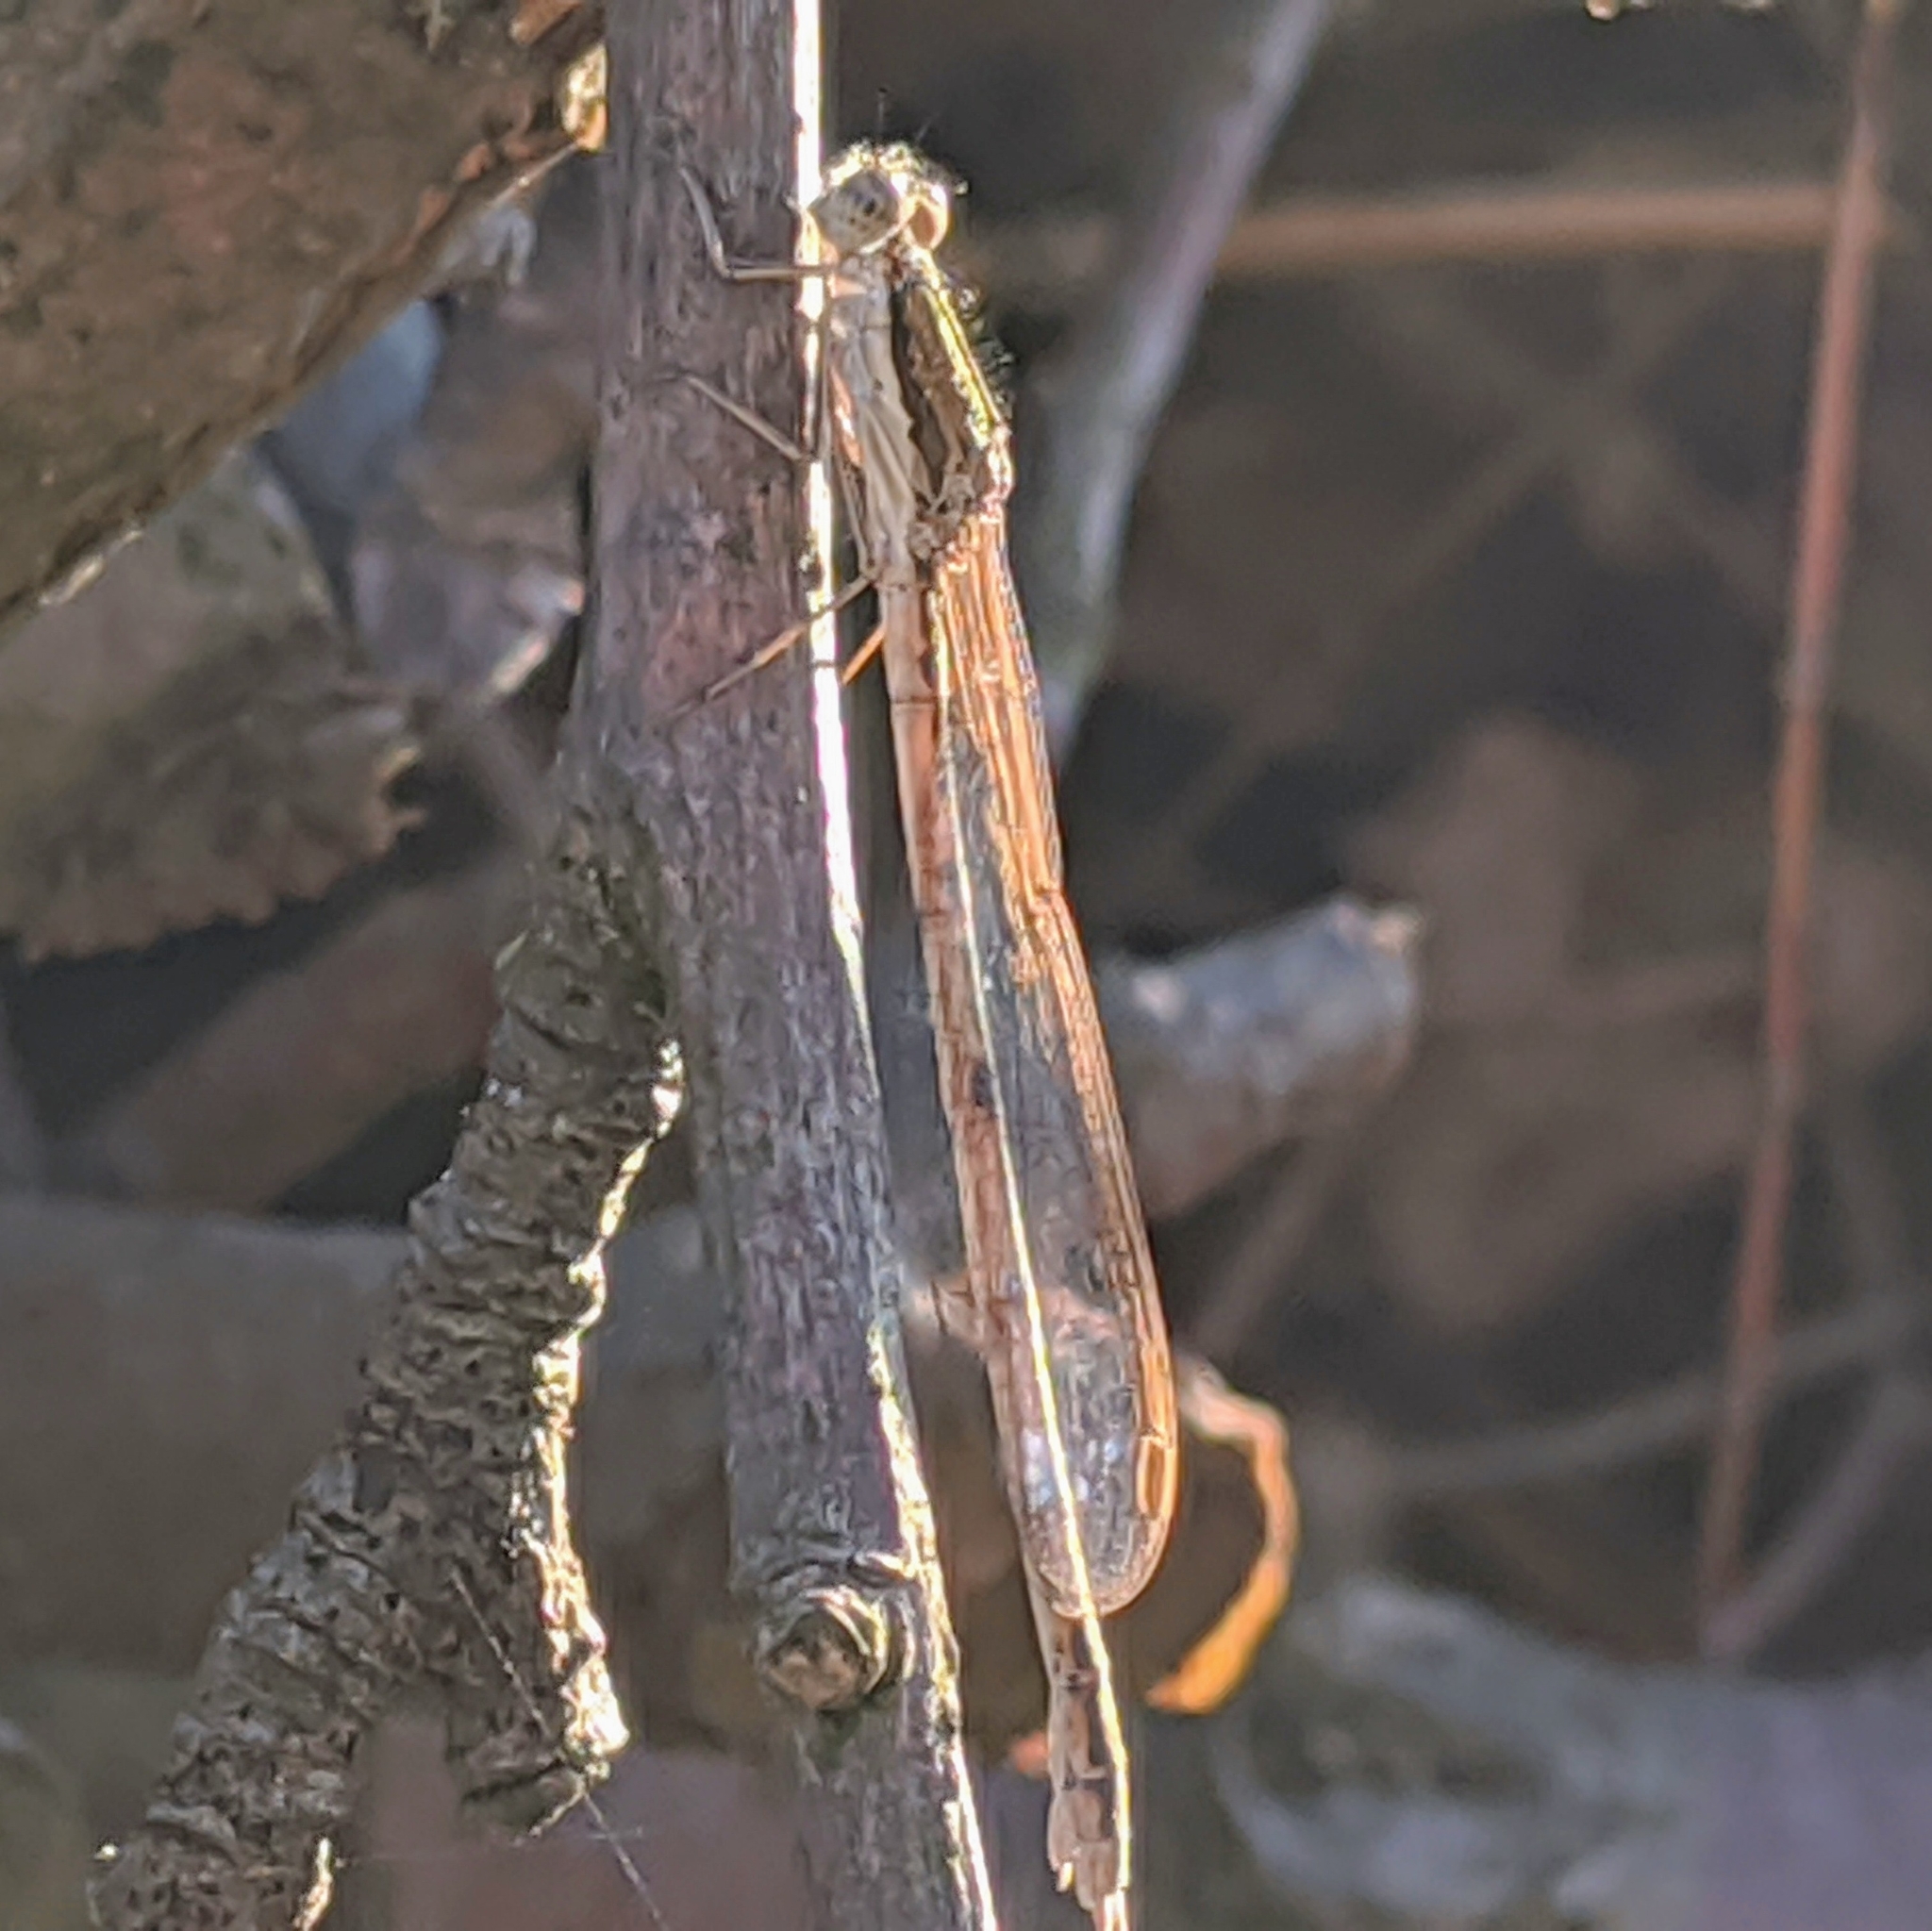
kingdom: Animalia
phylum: Arthropoda
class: Insecta
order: Odonata
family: Lestidae
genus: Sympecma
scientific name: Sympecma fusca
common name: Common winter damsel
